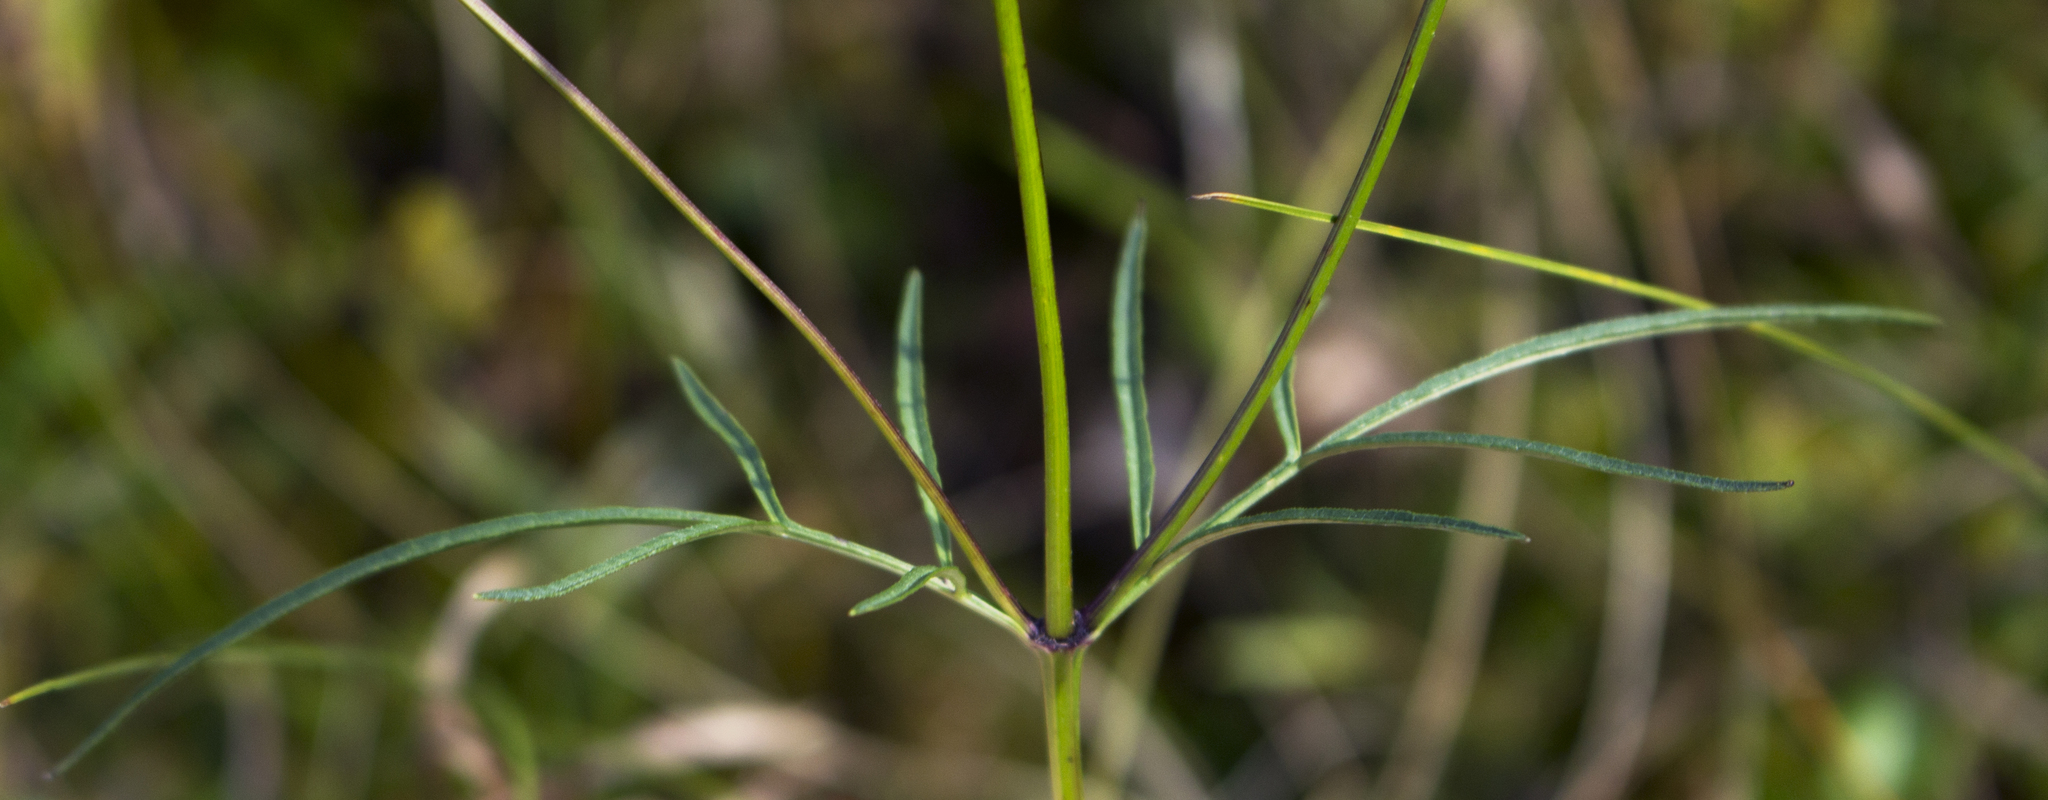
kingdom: Plantae
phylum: Tracheophyta
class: Magnoliopsida
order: Asterales
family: Asteraceae
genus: Bidens
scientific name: Bidens trichosperma
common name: Crowned beggarticks
